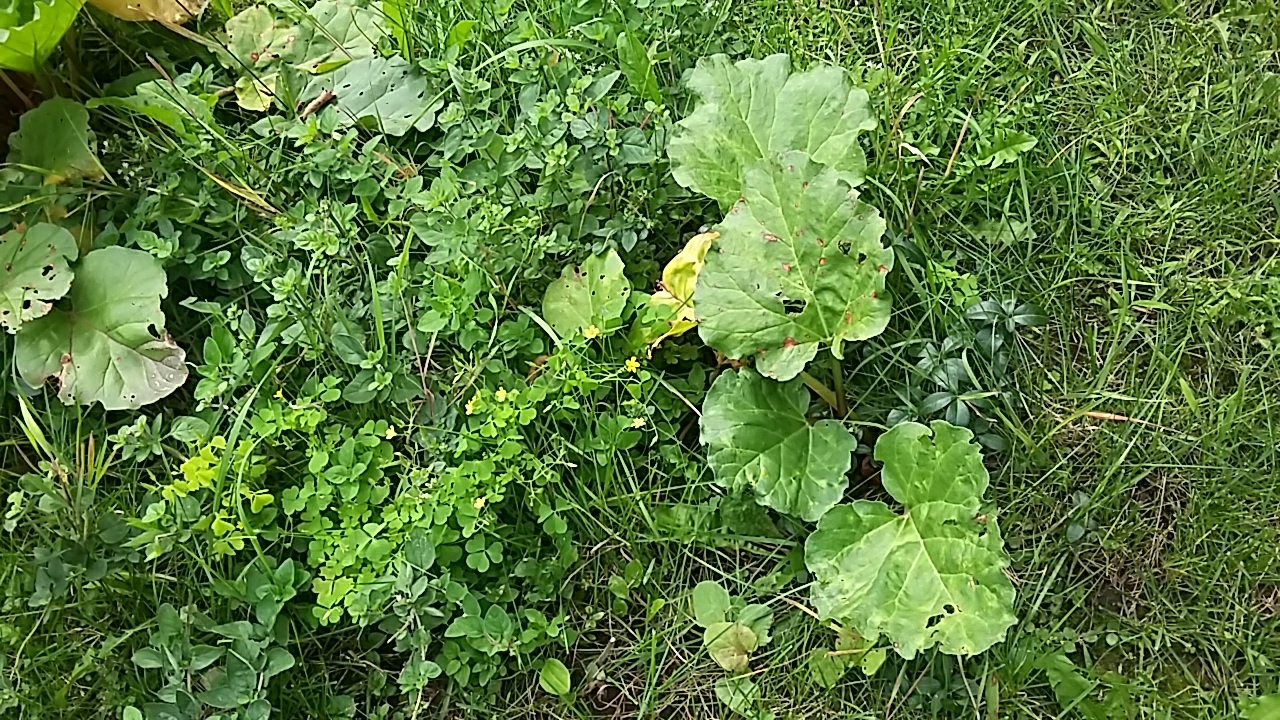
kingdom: Plantae
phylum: Tracheophyta
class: Magnoliopsida
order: Caryophyllales
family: Polygonaceae
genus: Rheum
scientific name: Rheum rhabarbarum
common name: Garden rhubarb
